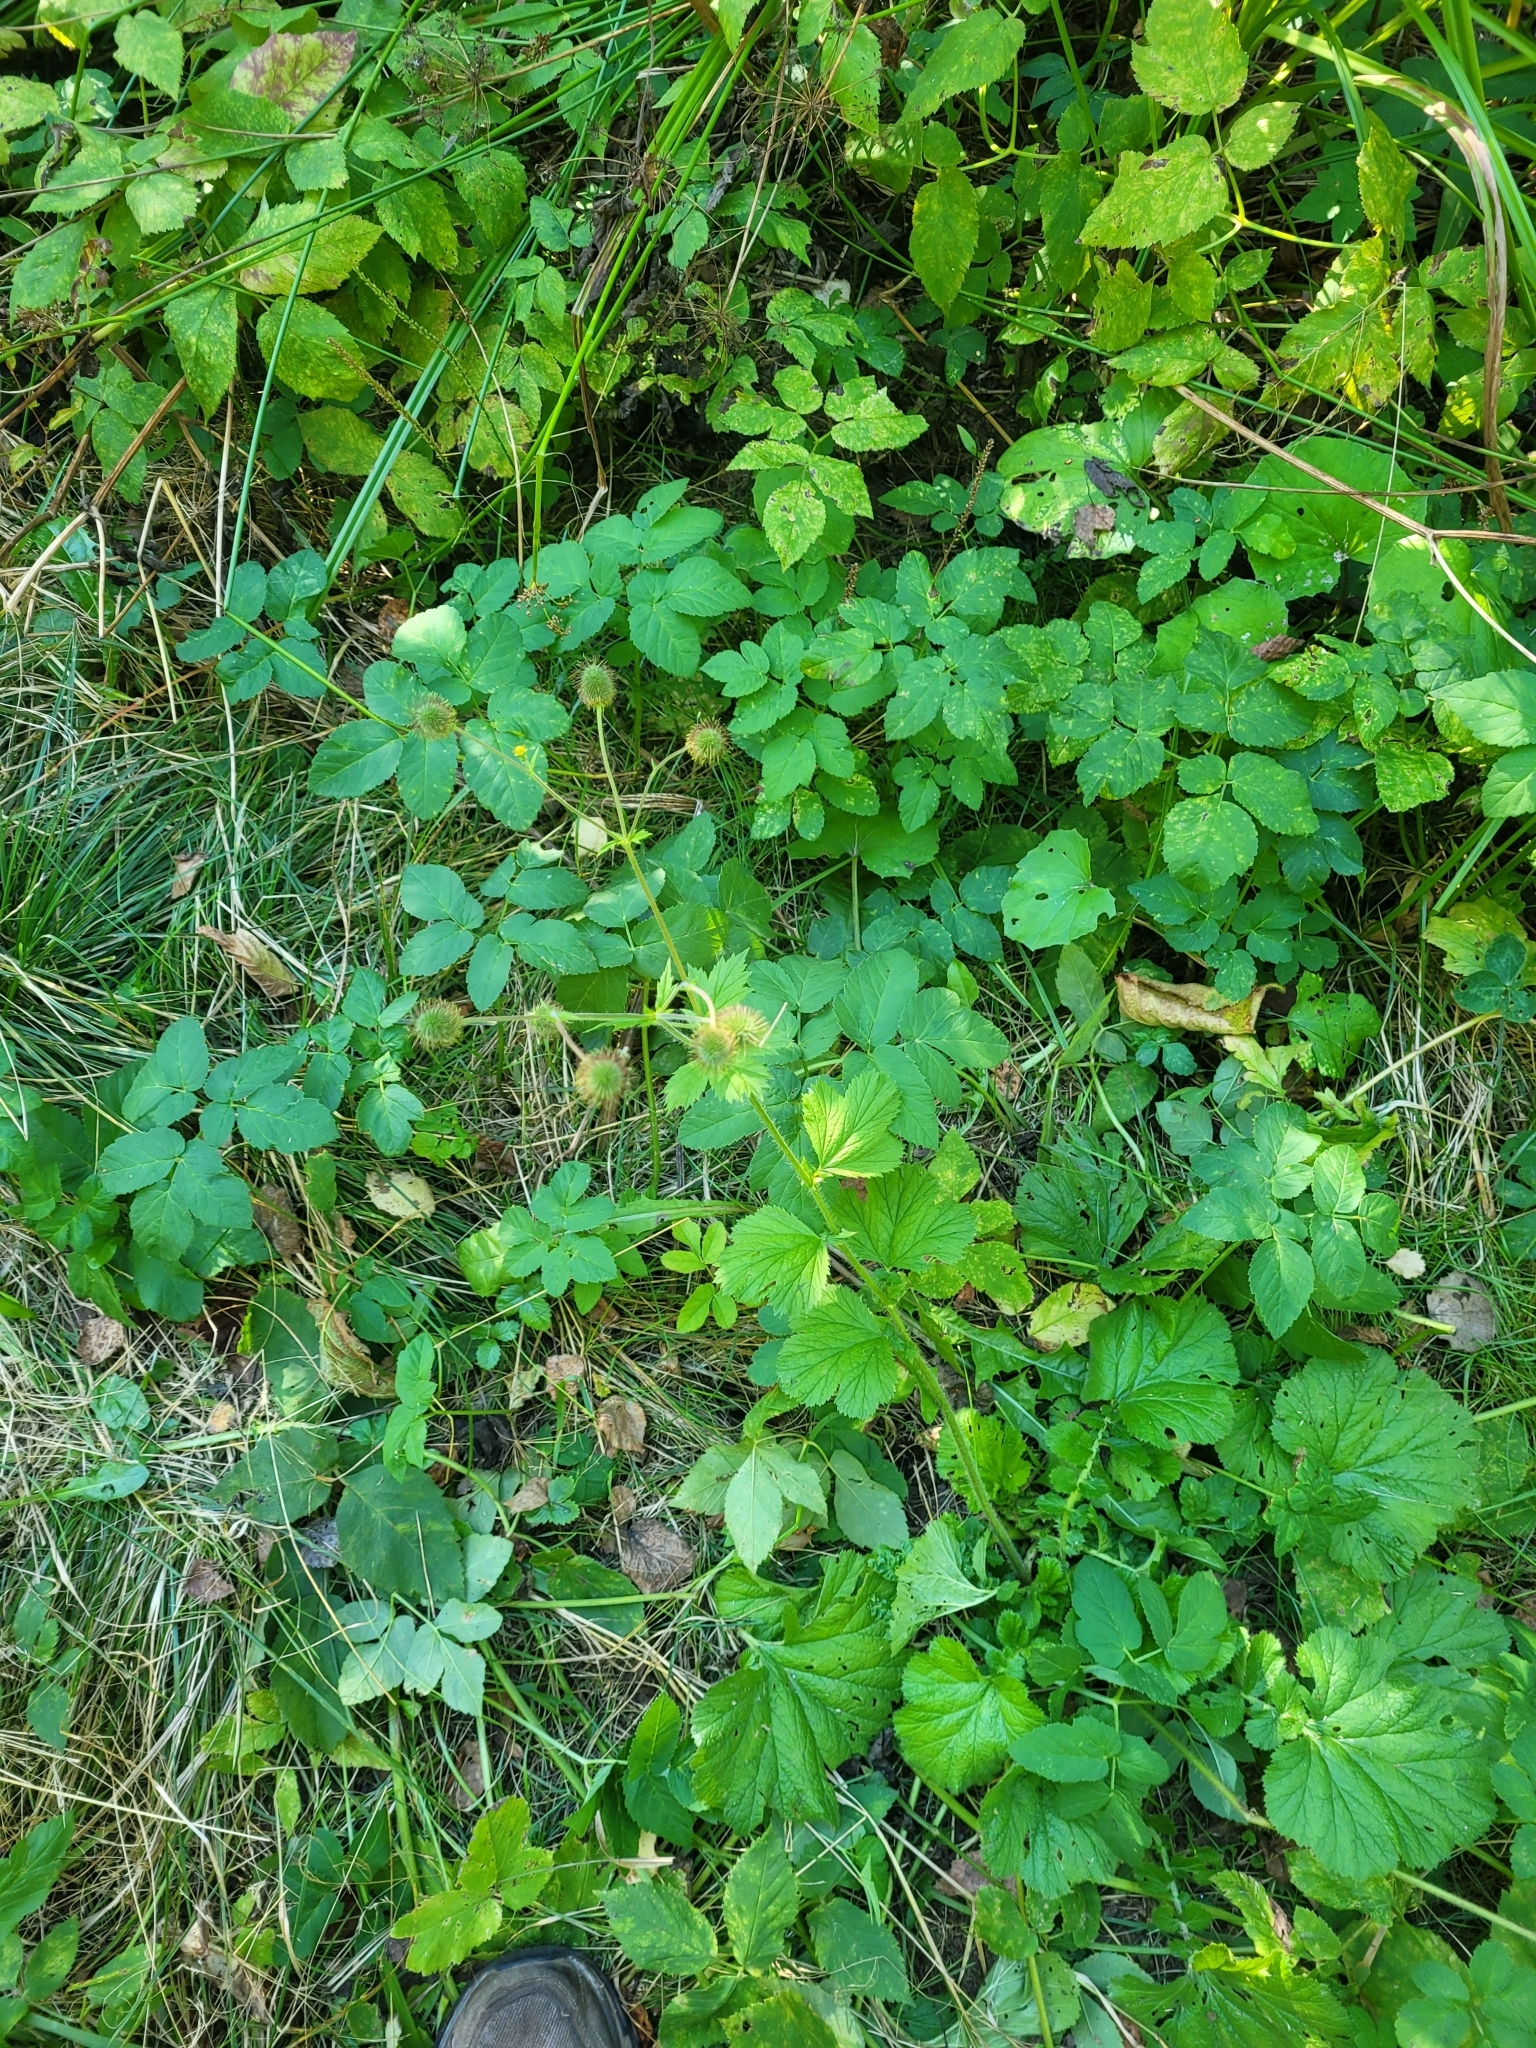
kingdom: Plantae
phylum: Tracheophyta
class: Magnoliopsida
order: Rosales
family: Rosaceae
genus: Geum
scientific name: Geum macrophyllum
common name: Large-leaved avens
